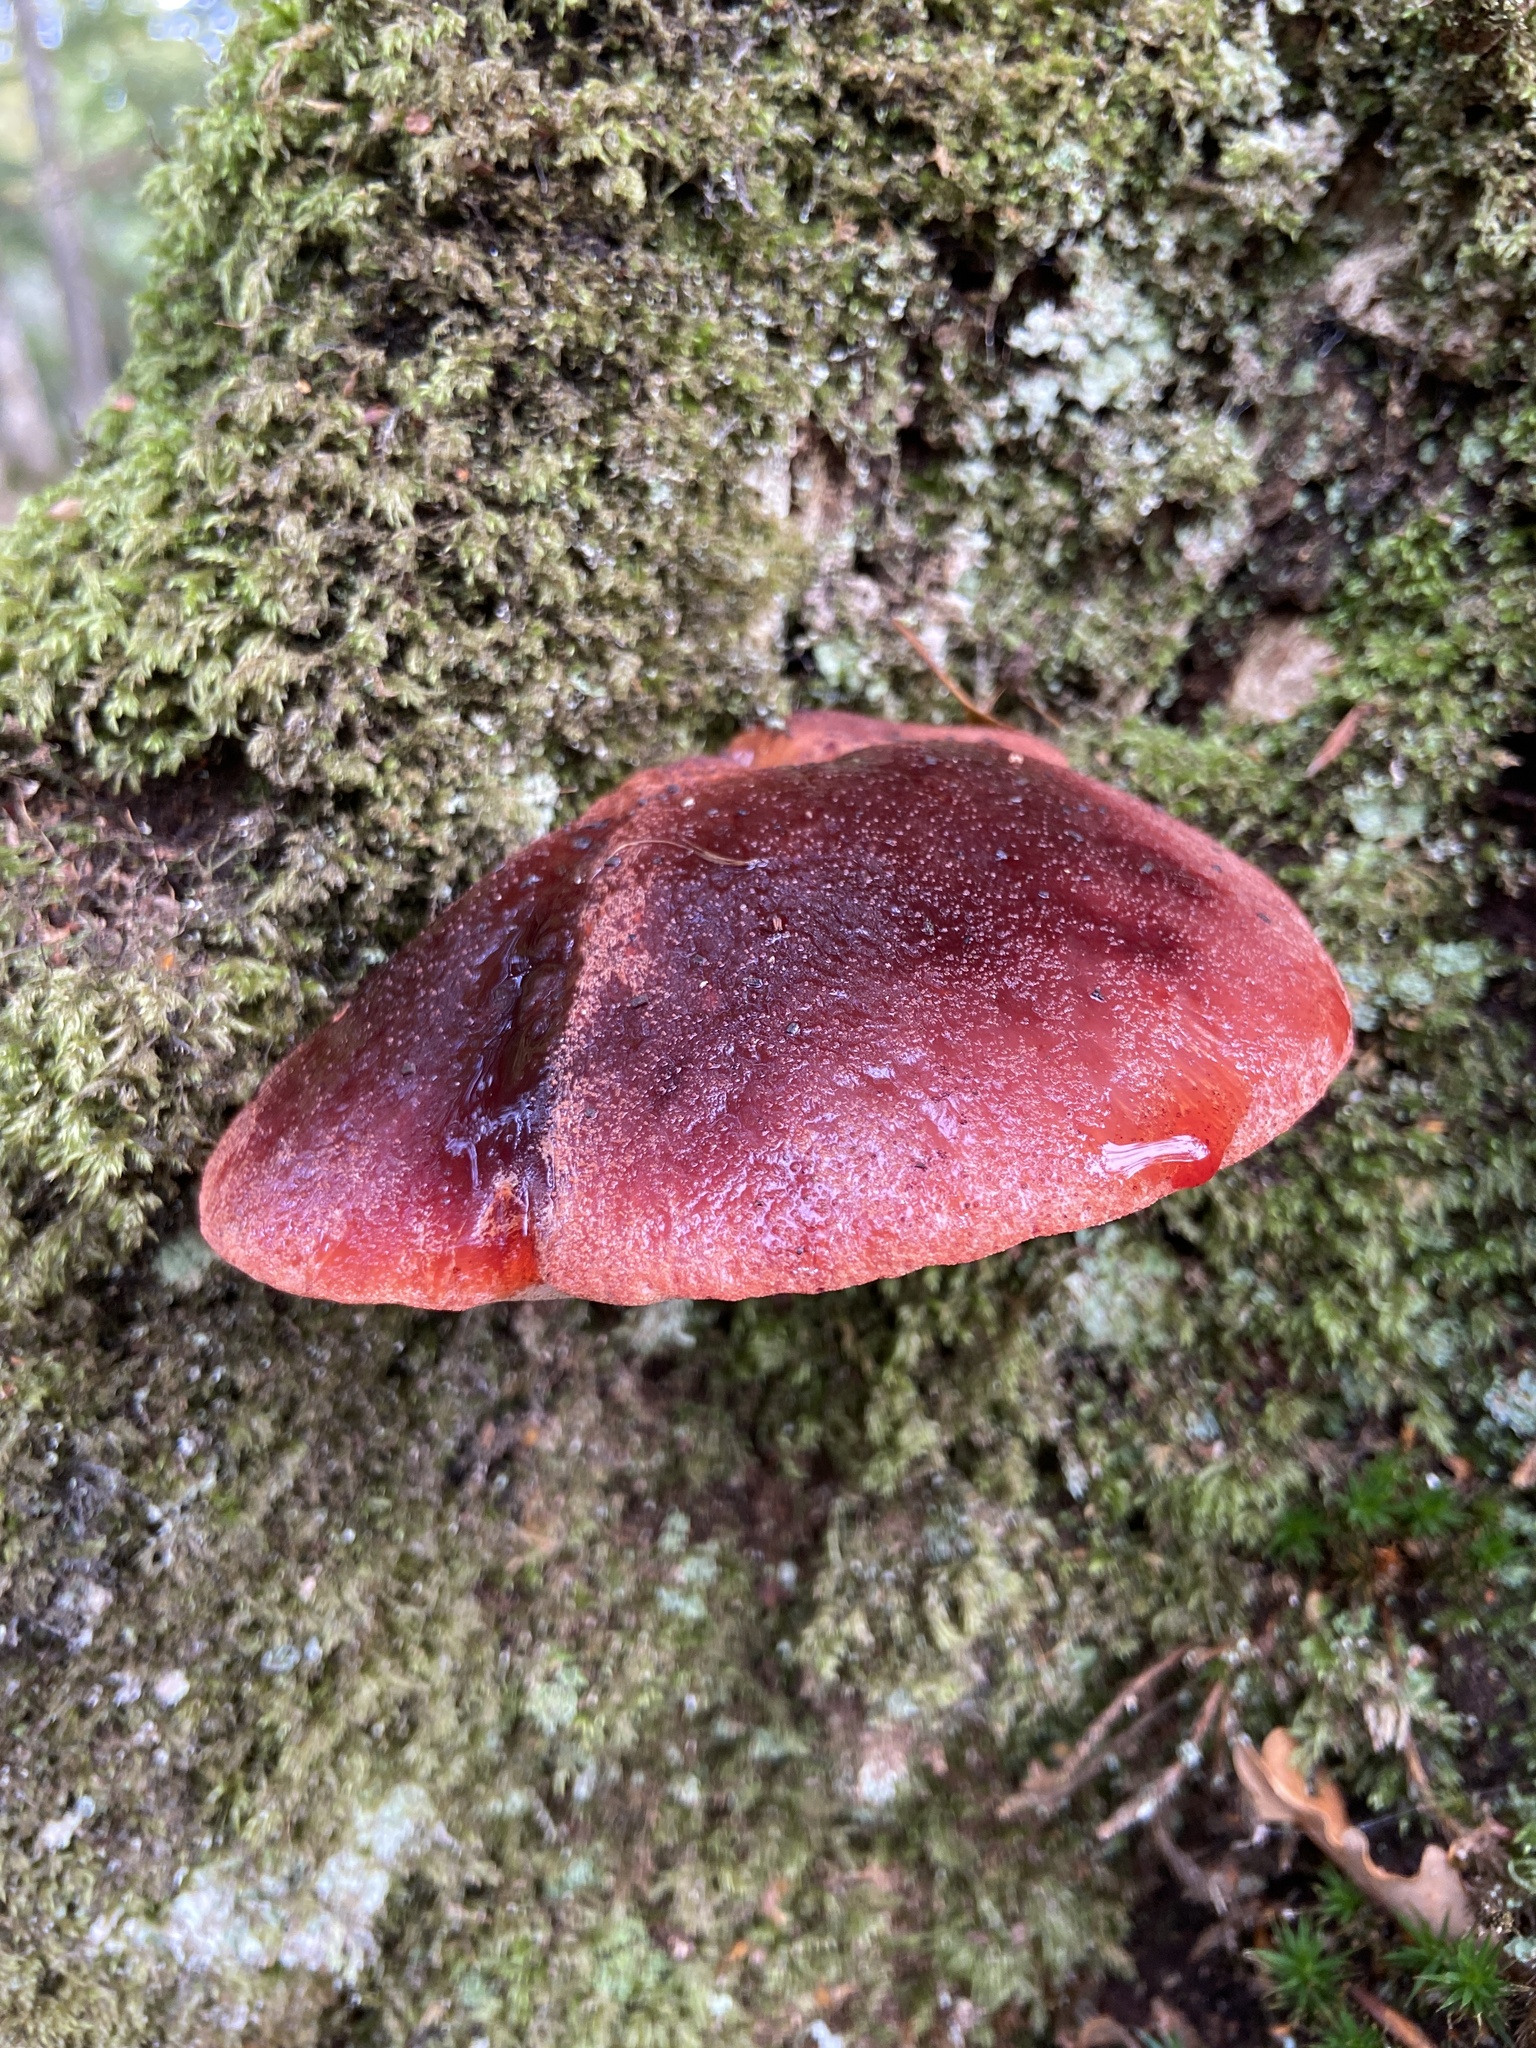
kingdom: Fungi
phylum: Basidiomycota
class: Agaricomycetes
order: Agaricales
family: Fistulinaceae
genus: Fistulina
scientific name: Fistulina hepatica
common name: Beef-steak fungus
